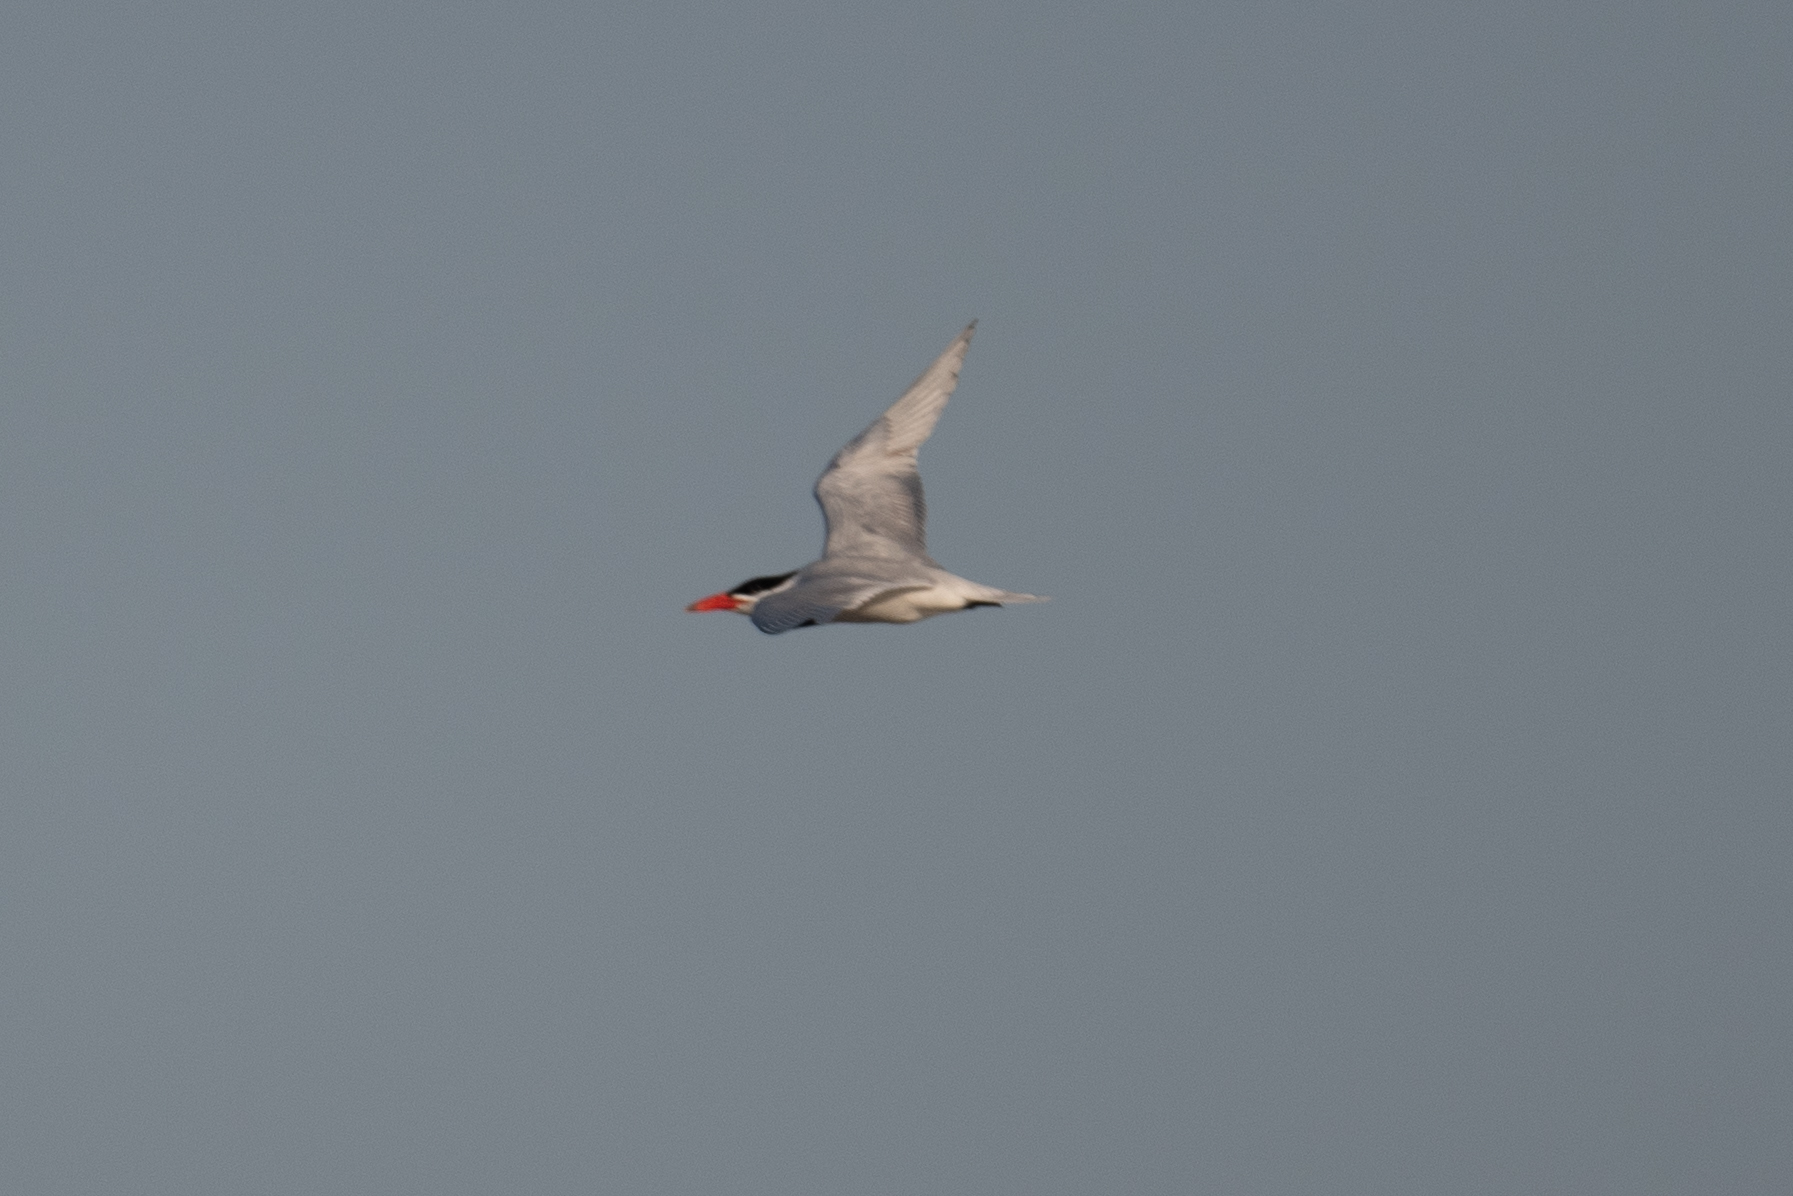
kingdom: Animalia
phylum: Chordata
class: Aves
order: Charadriiformes
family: Laridae
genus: Hydroprogne
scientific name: Hydroprogne caspia
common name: Caspian tern
